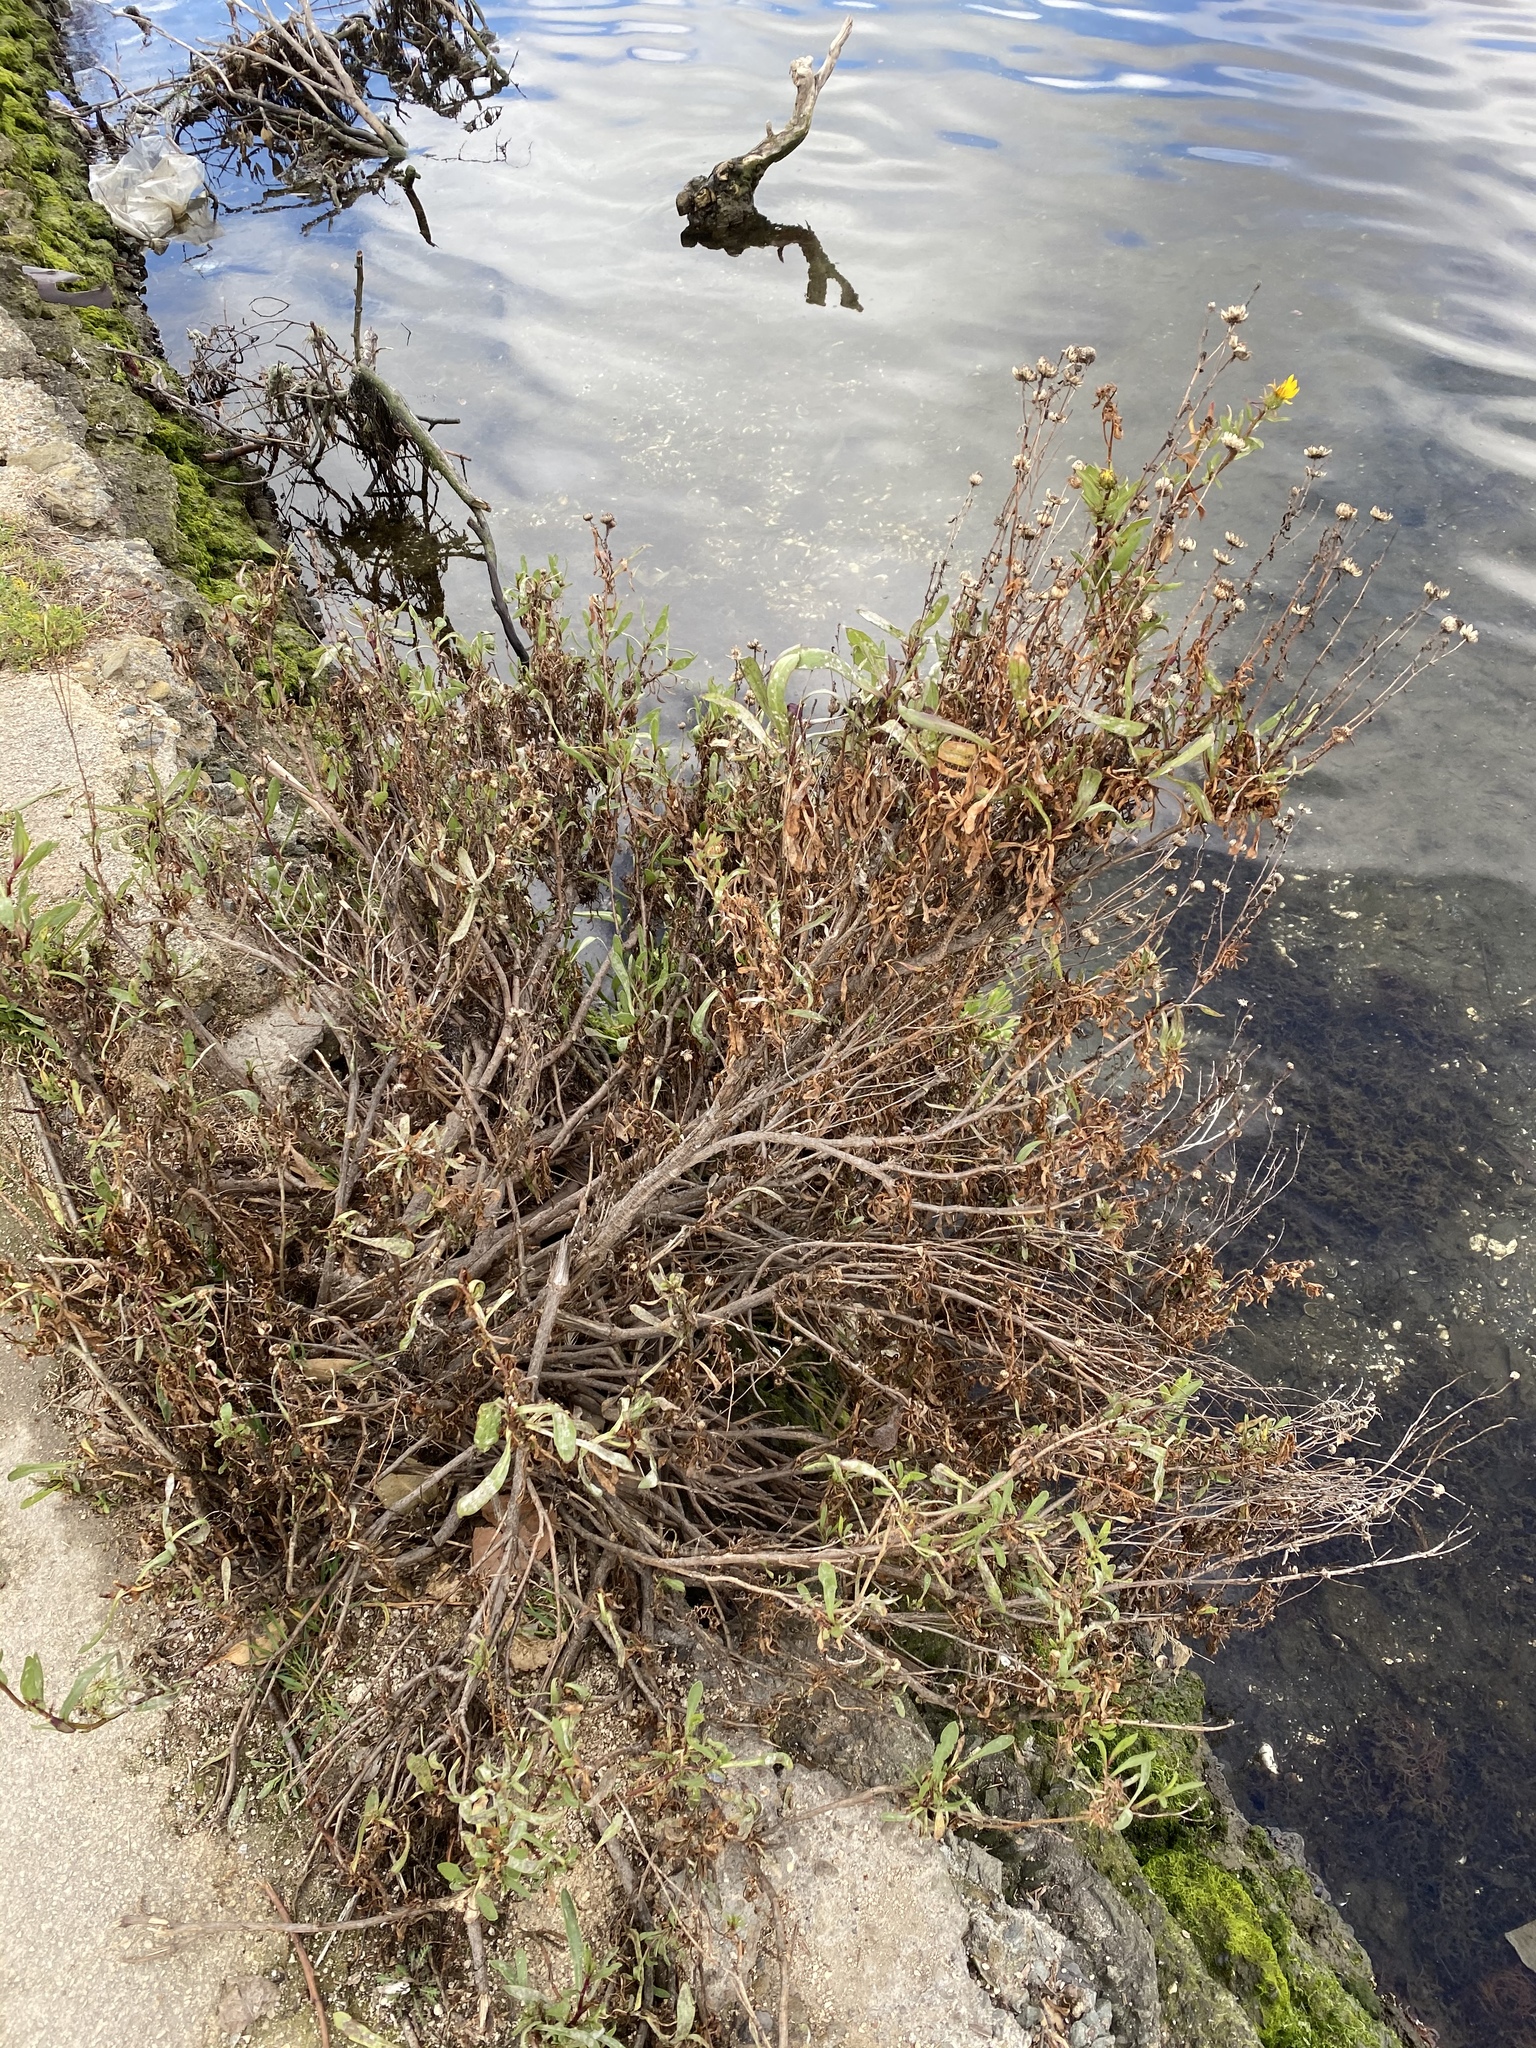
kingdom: Plantae
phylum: Tracheophyta
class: Magnoliopsida
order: Asterales
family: Asteraceae
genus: Grindelia
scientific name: Grindelia hirsutula
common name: Hairy gumweed
